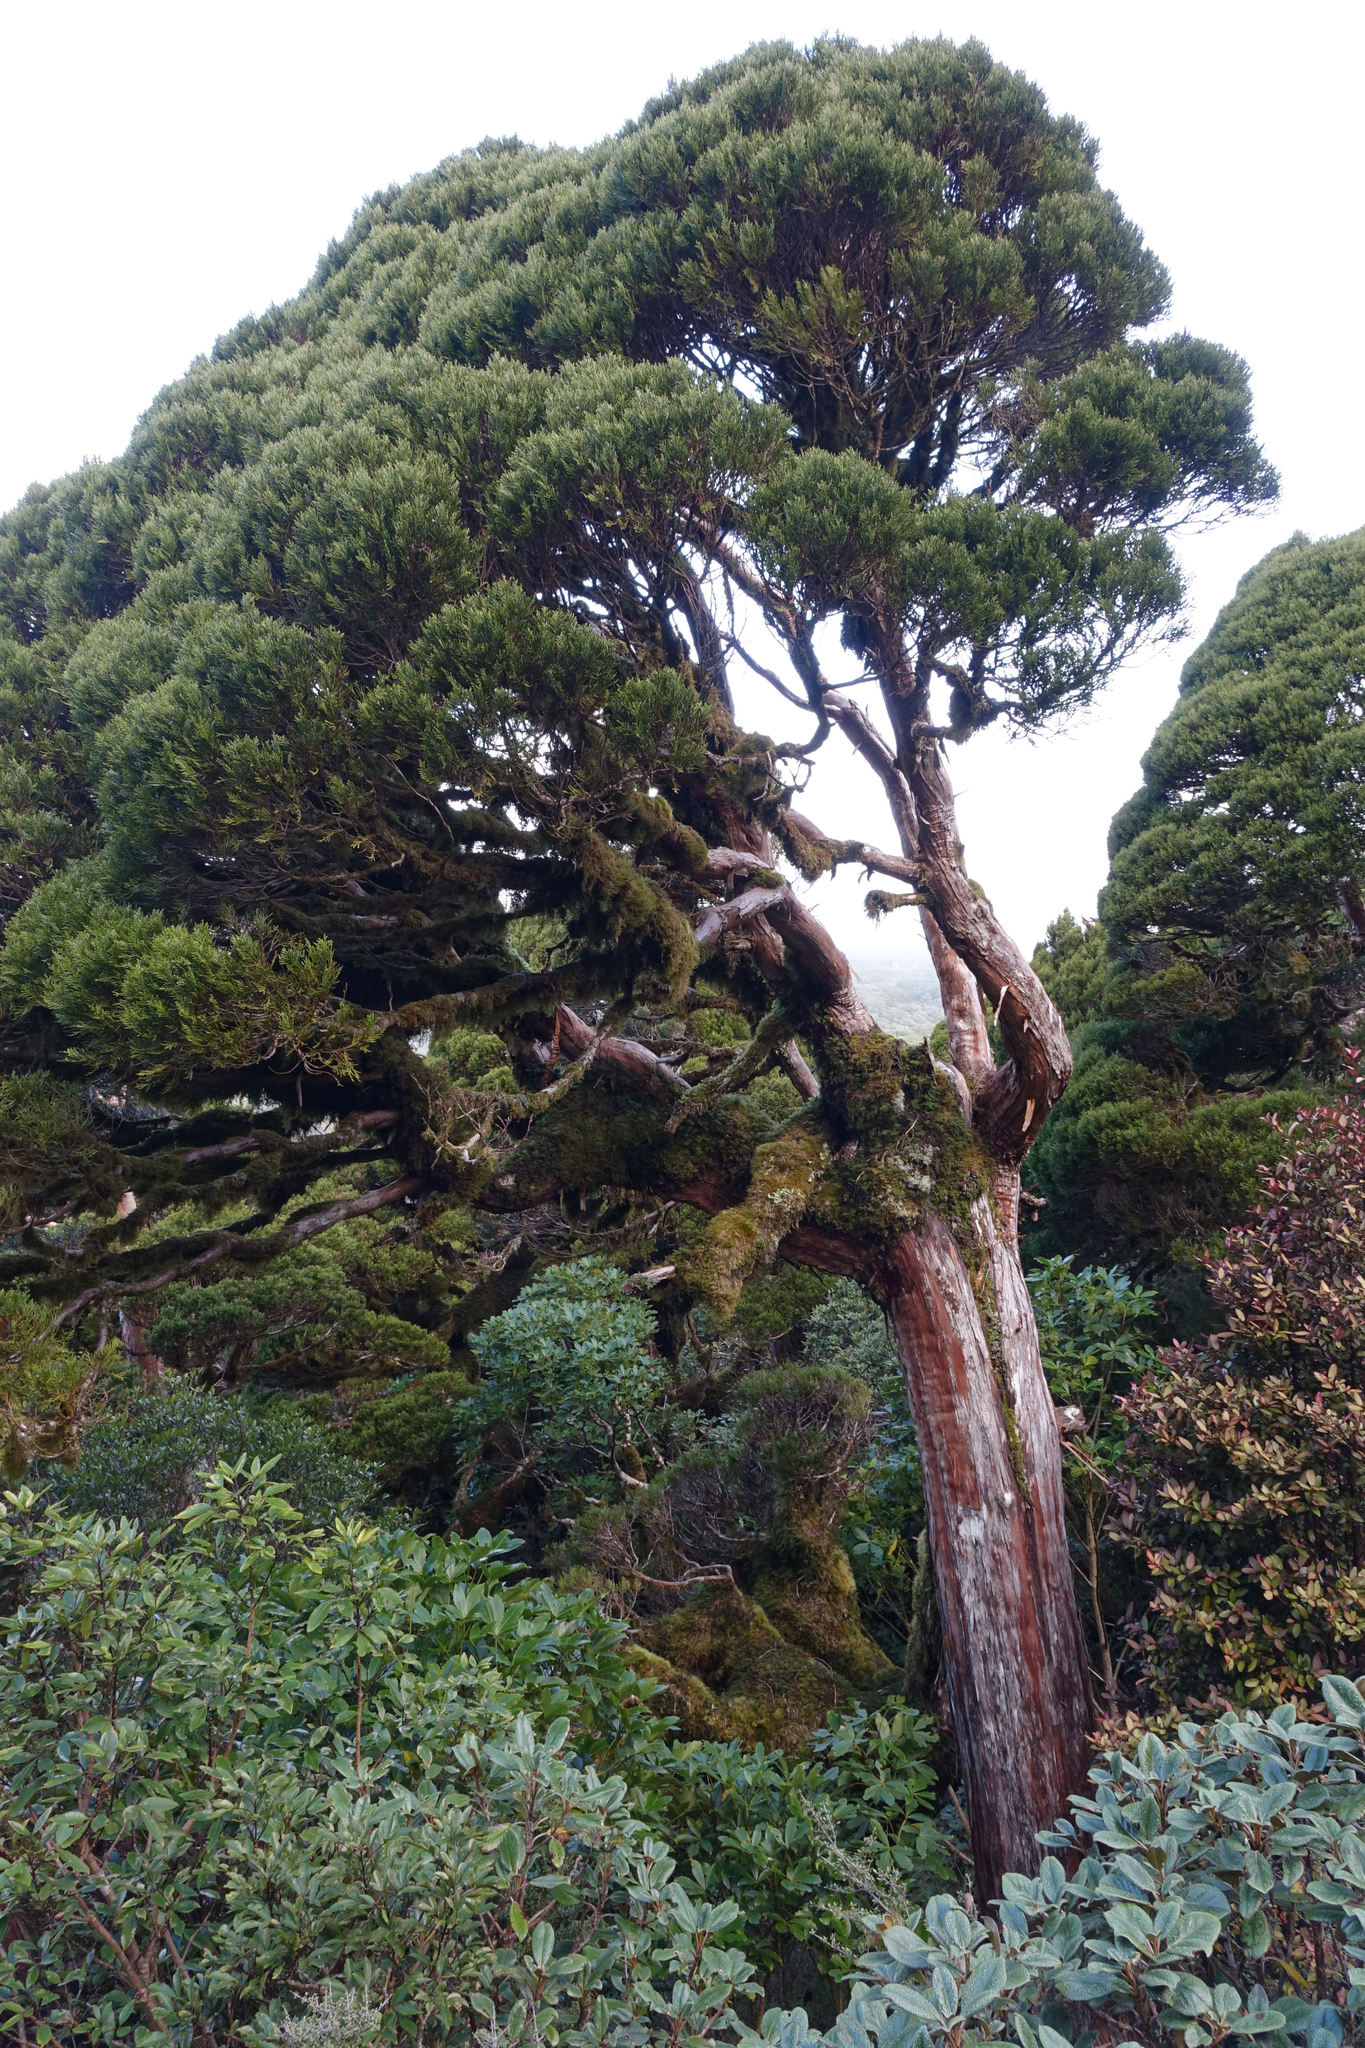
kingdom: Plantae
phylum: Tracheophyta
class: Pinopsida
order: Pinales
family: Cupressaceae
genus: Libocedrus
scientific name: Libocedrus bidwillii
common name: Cedar
